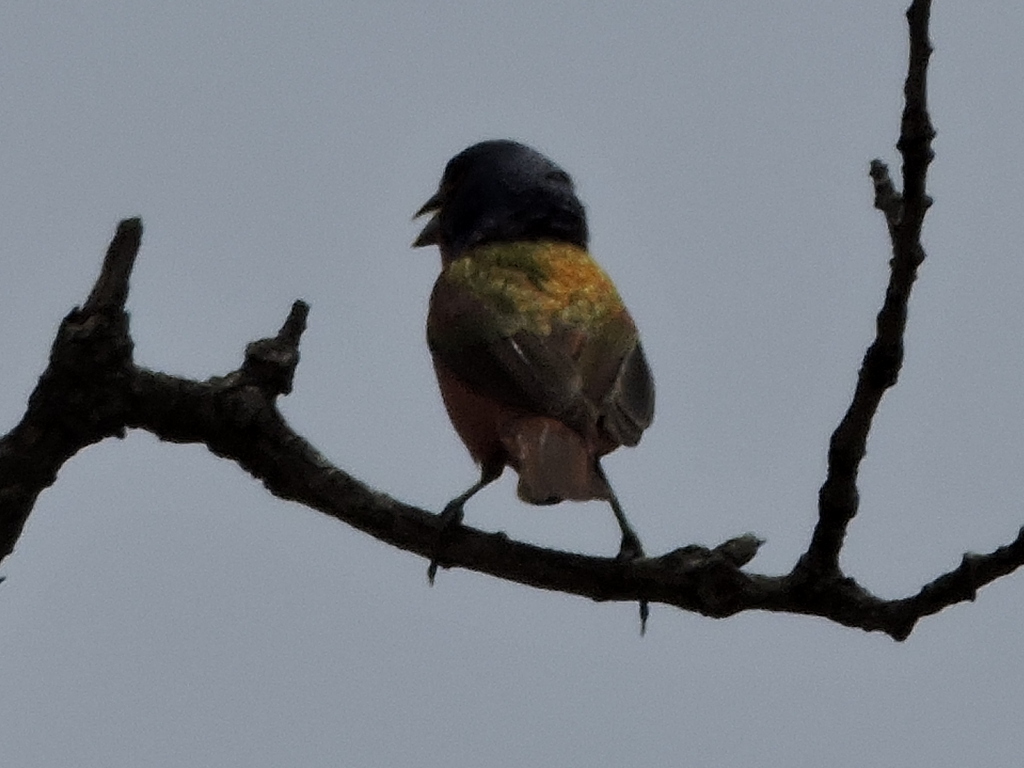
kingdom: Animalia
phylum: Chordata
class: Aves
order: Passeriformes
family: Cardinalidae
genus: Passerina
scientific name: Passerina ciris
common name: Painted bunting
